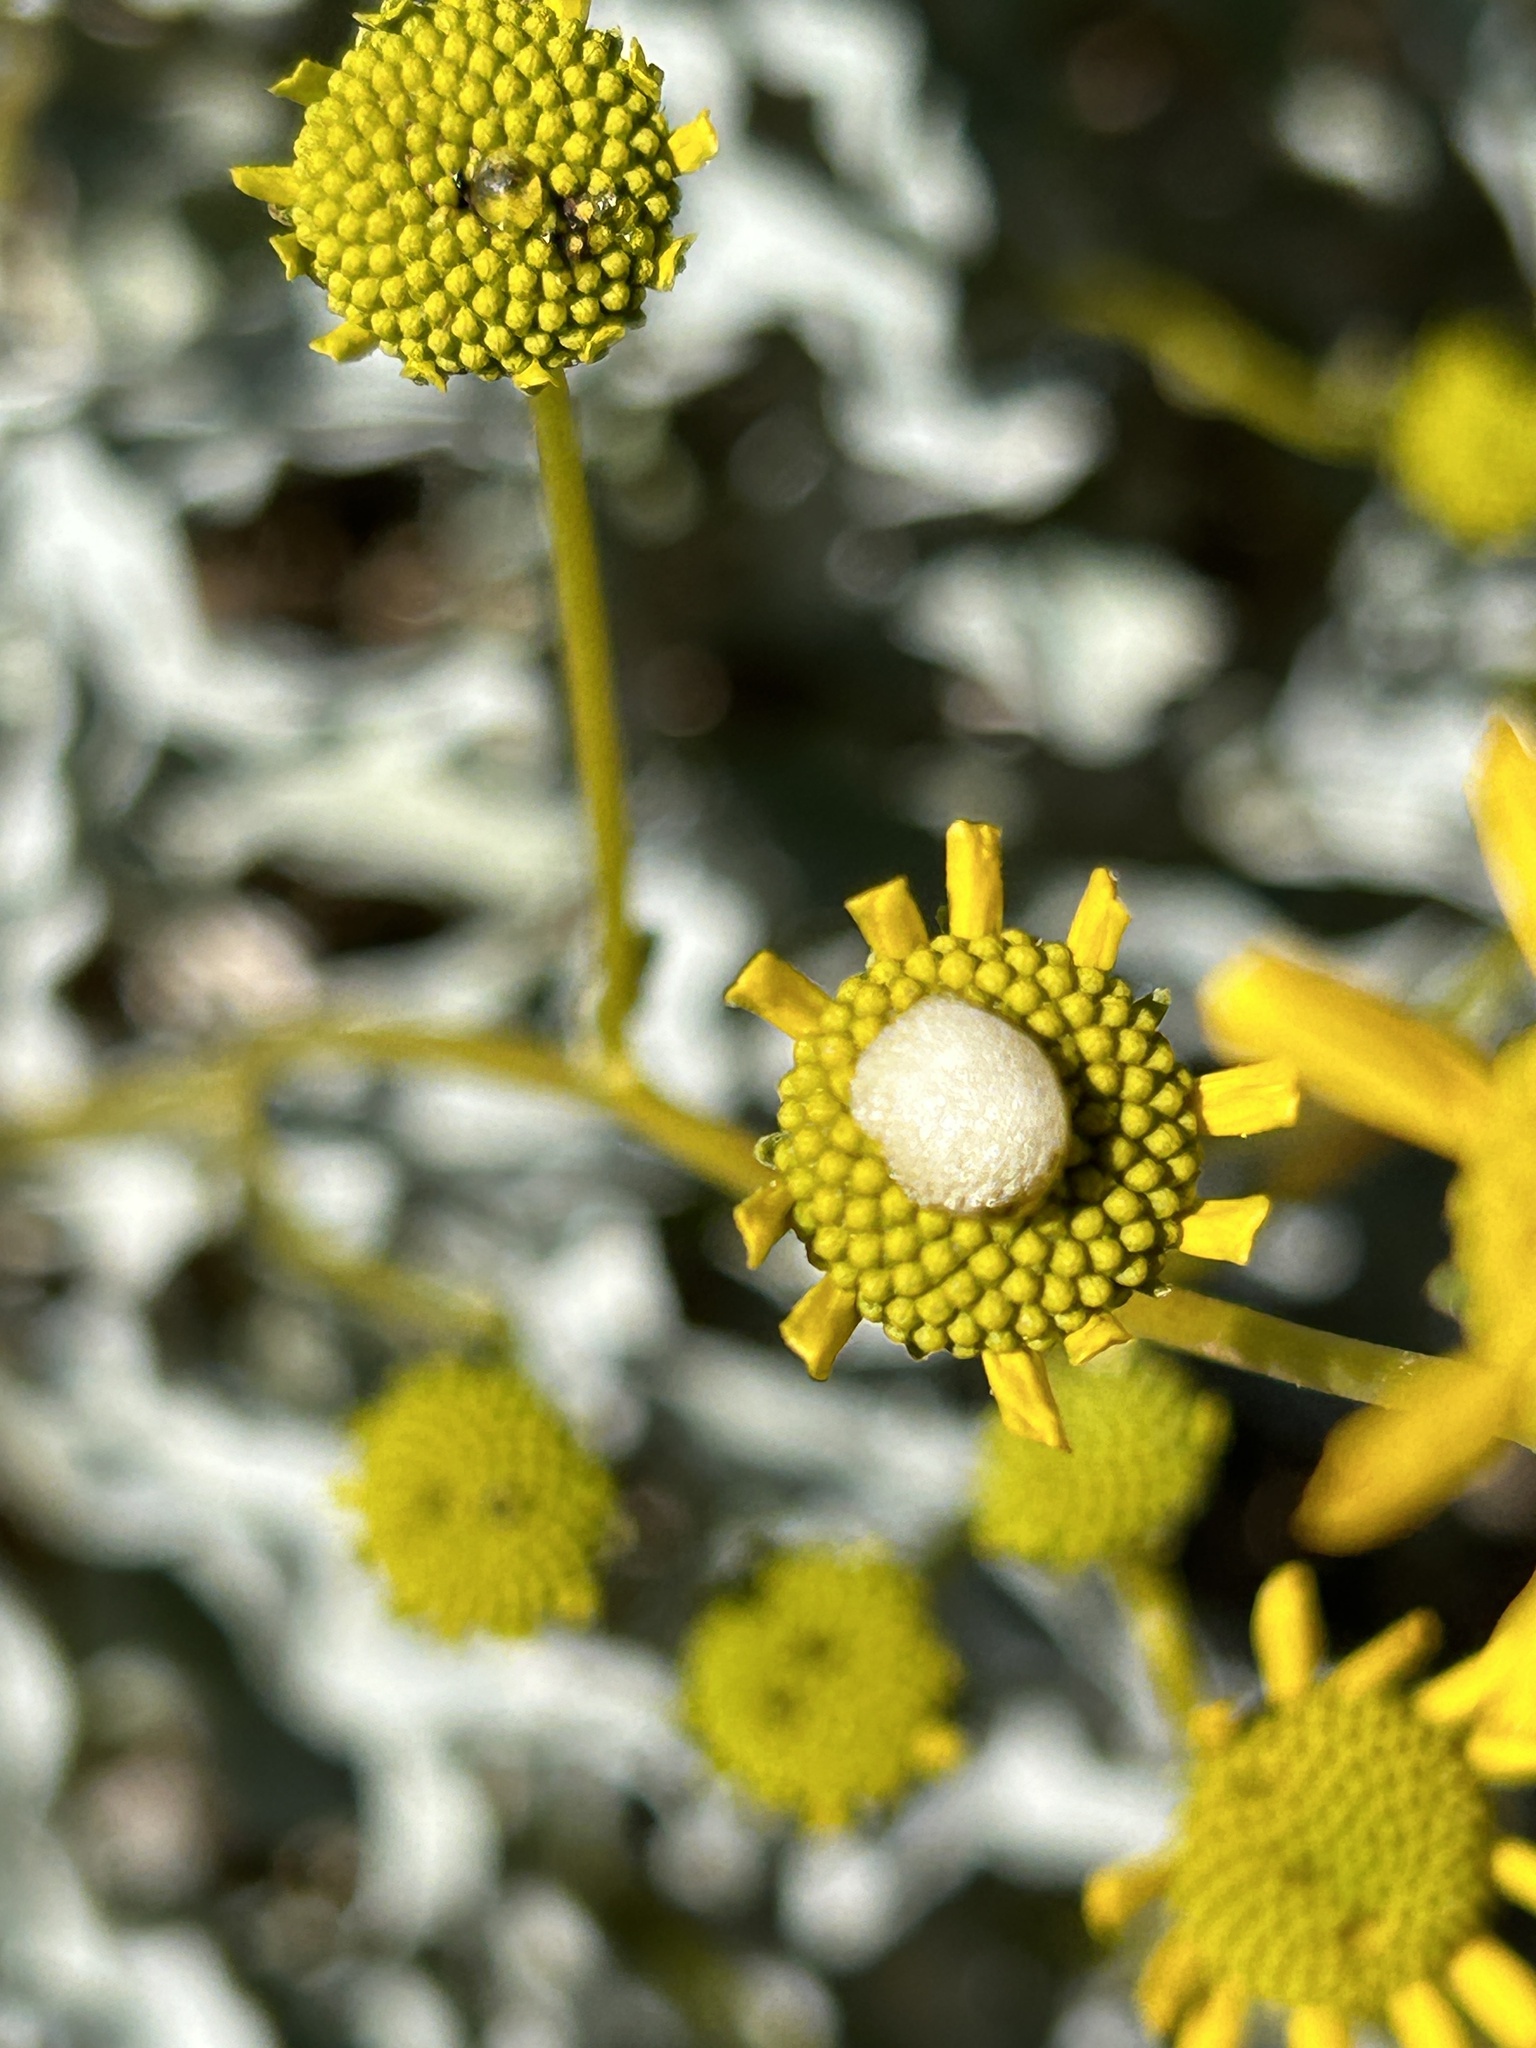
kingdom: Plantae
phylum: Tracheophyta
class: Magnoliopsida
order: Asterales
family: Asteraceae
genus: Encelia
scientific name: Encelia farinosa
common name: Brittlebush
